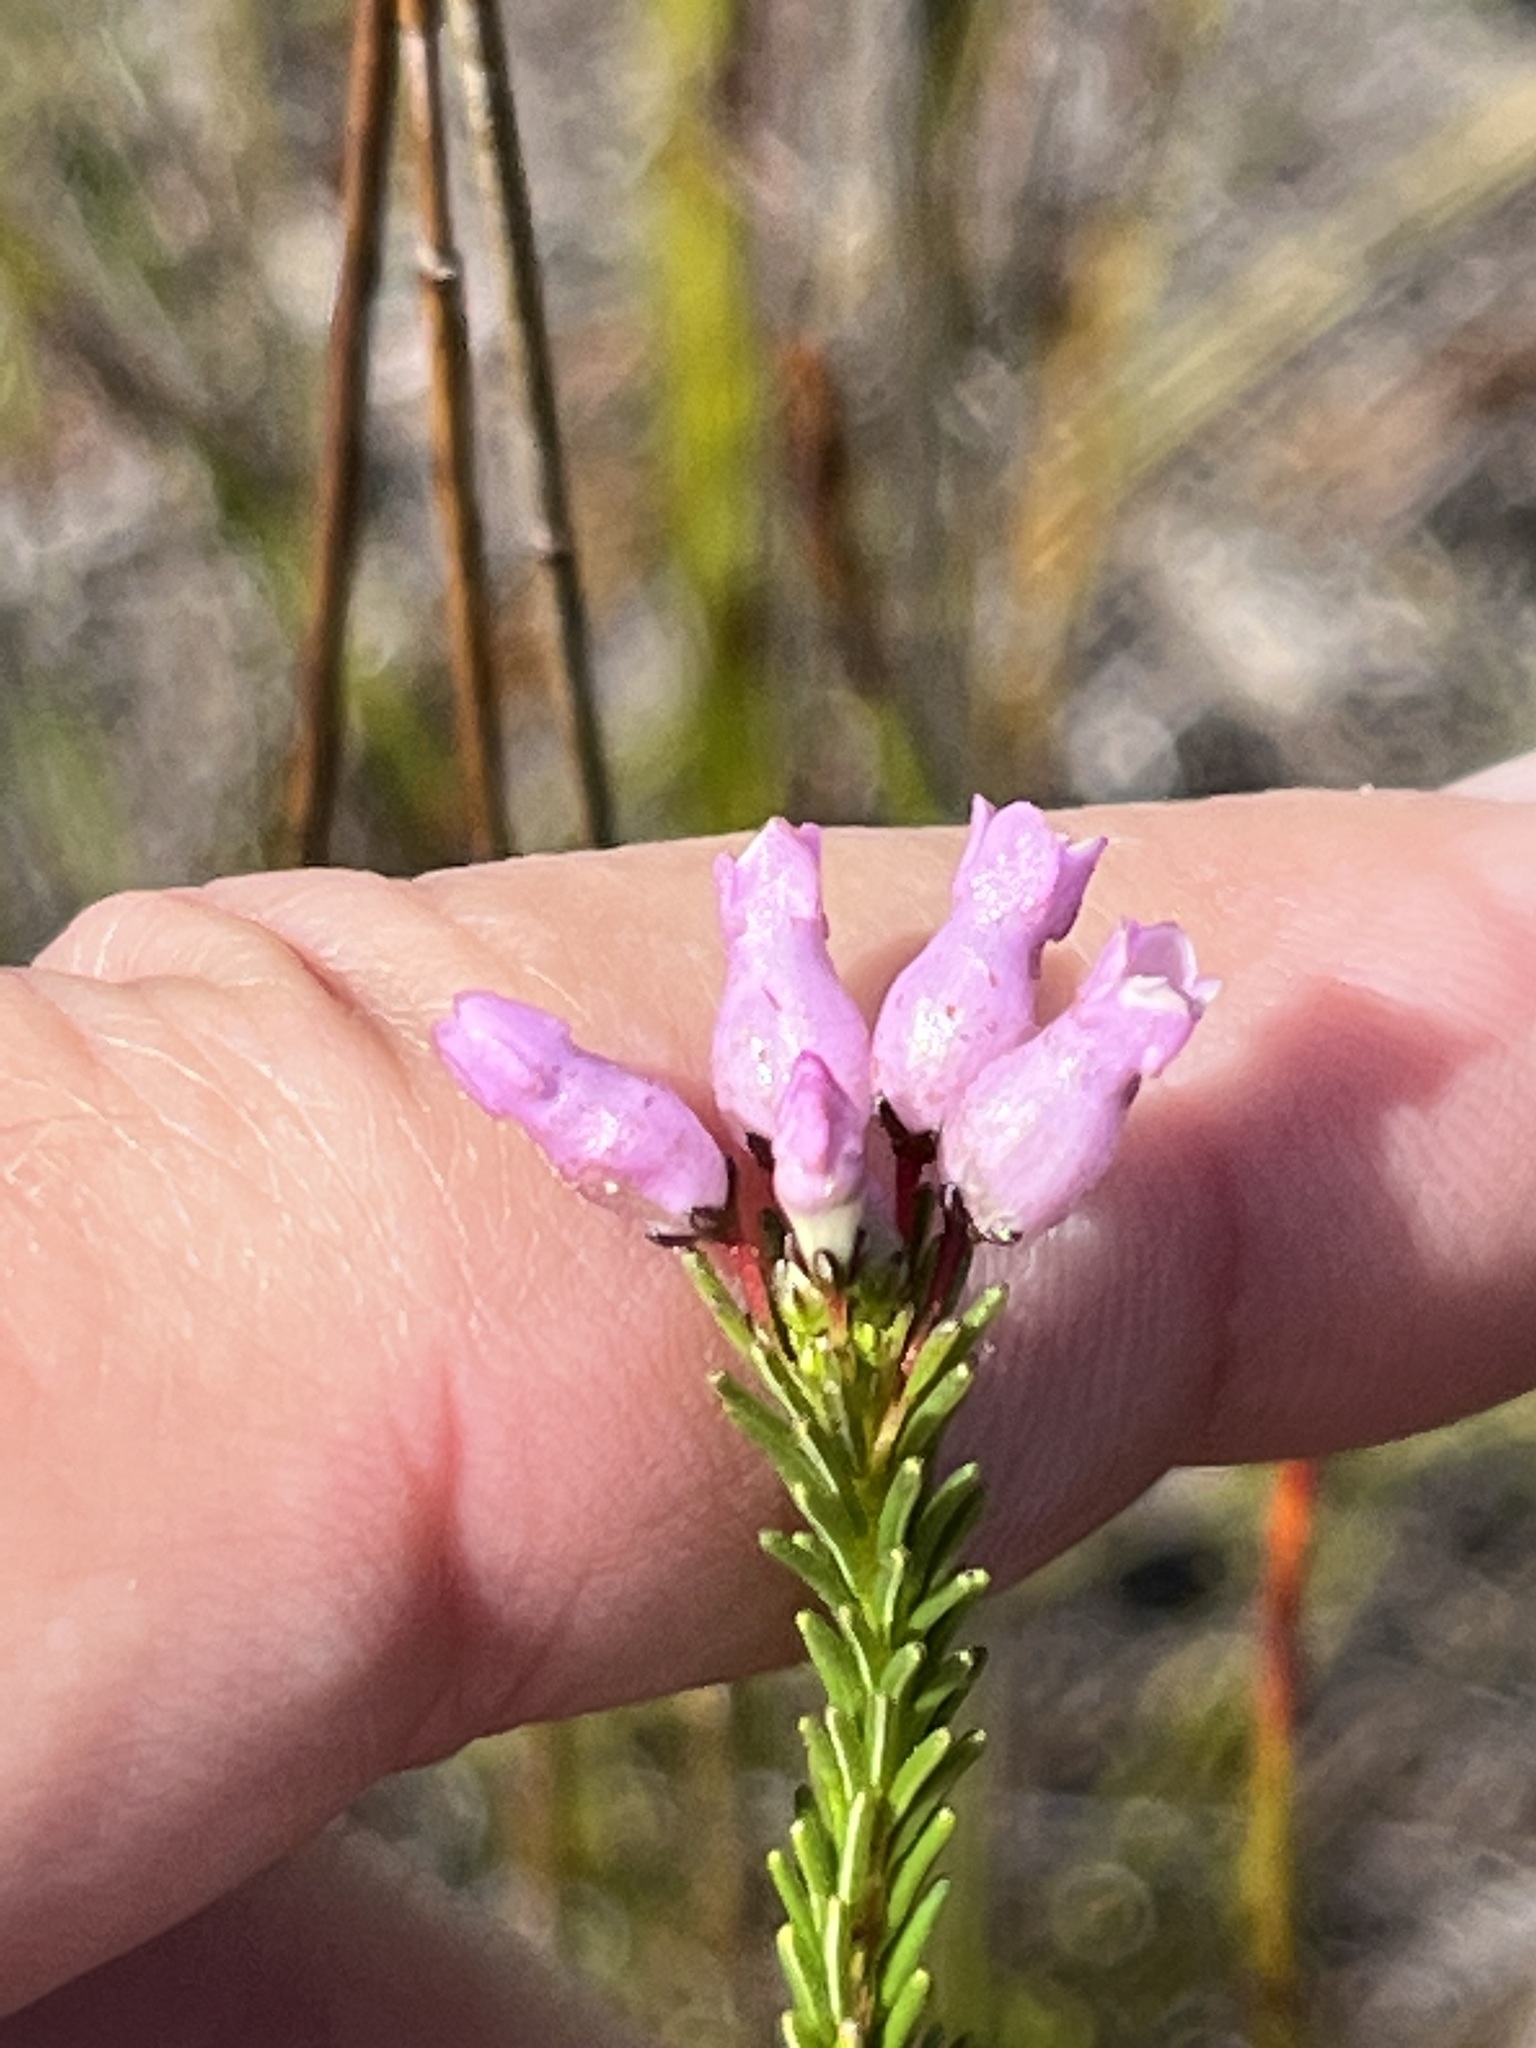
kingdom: Plantae
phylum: Tracheophyta
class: Magnoliopsida
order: Ericales
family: Ericaceae
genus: Erica
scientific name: Erica obliqua
